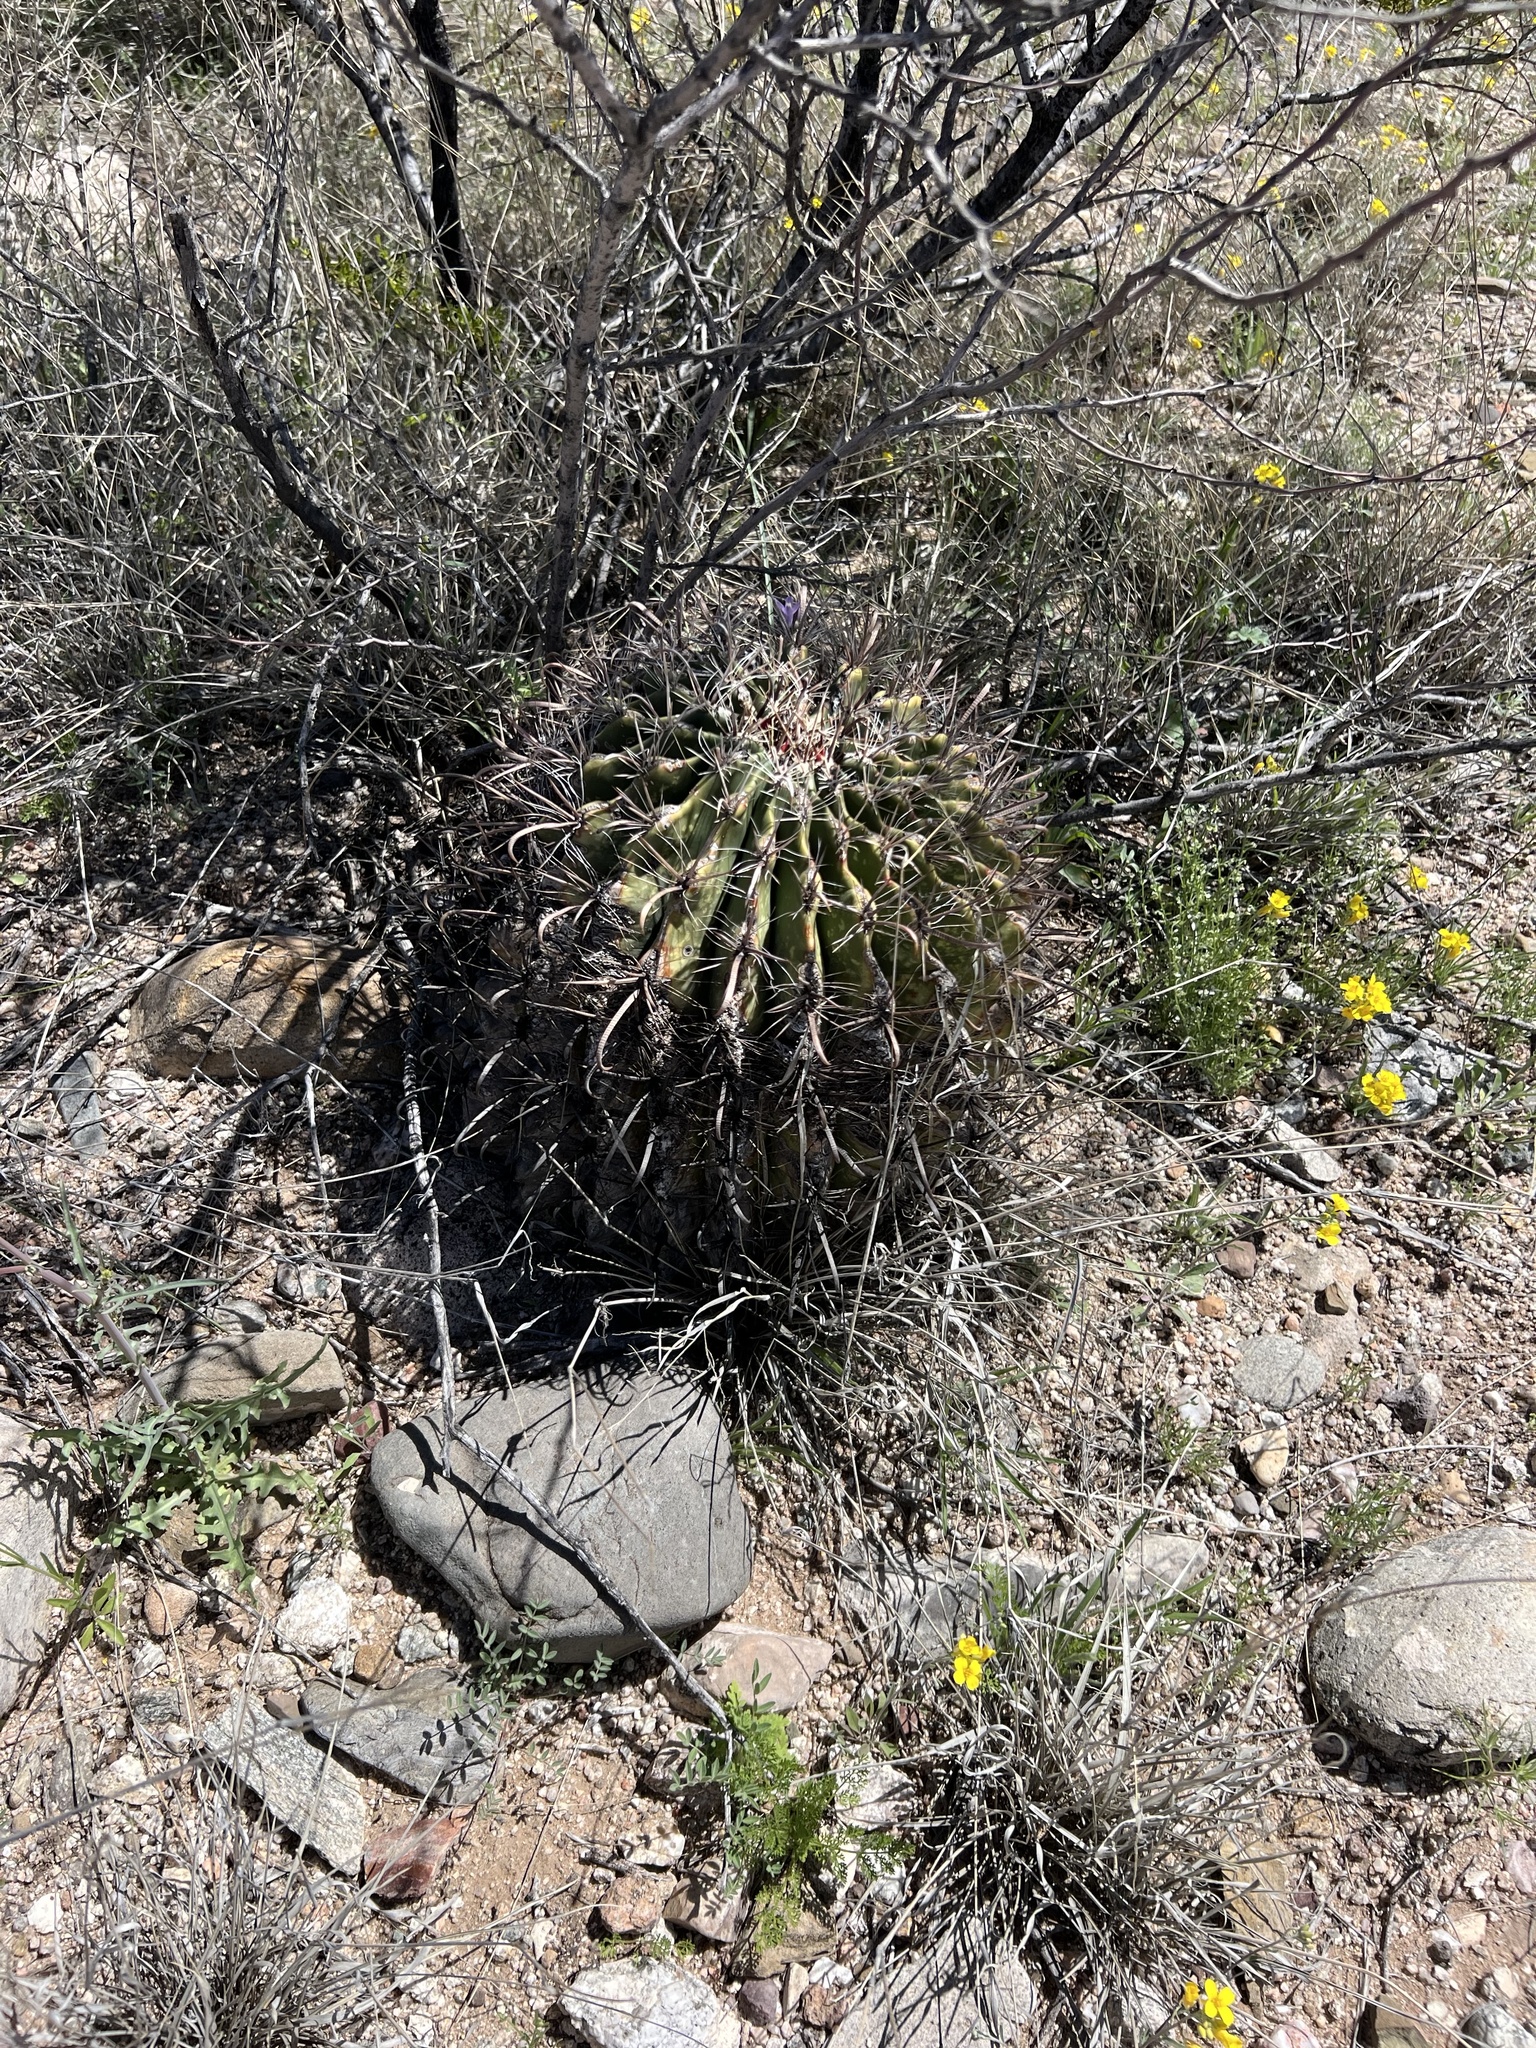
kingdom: Plantae
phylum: Tracheophyta
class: Magnoliopsida
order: Caryophyllales
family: Cactaceae
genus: Ferocactus
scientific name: Ferocactus wislizeni
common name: Candy barrel cactus
